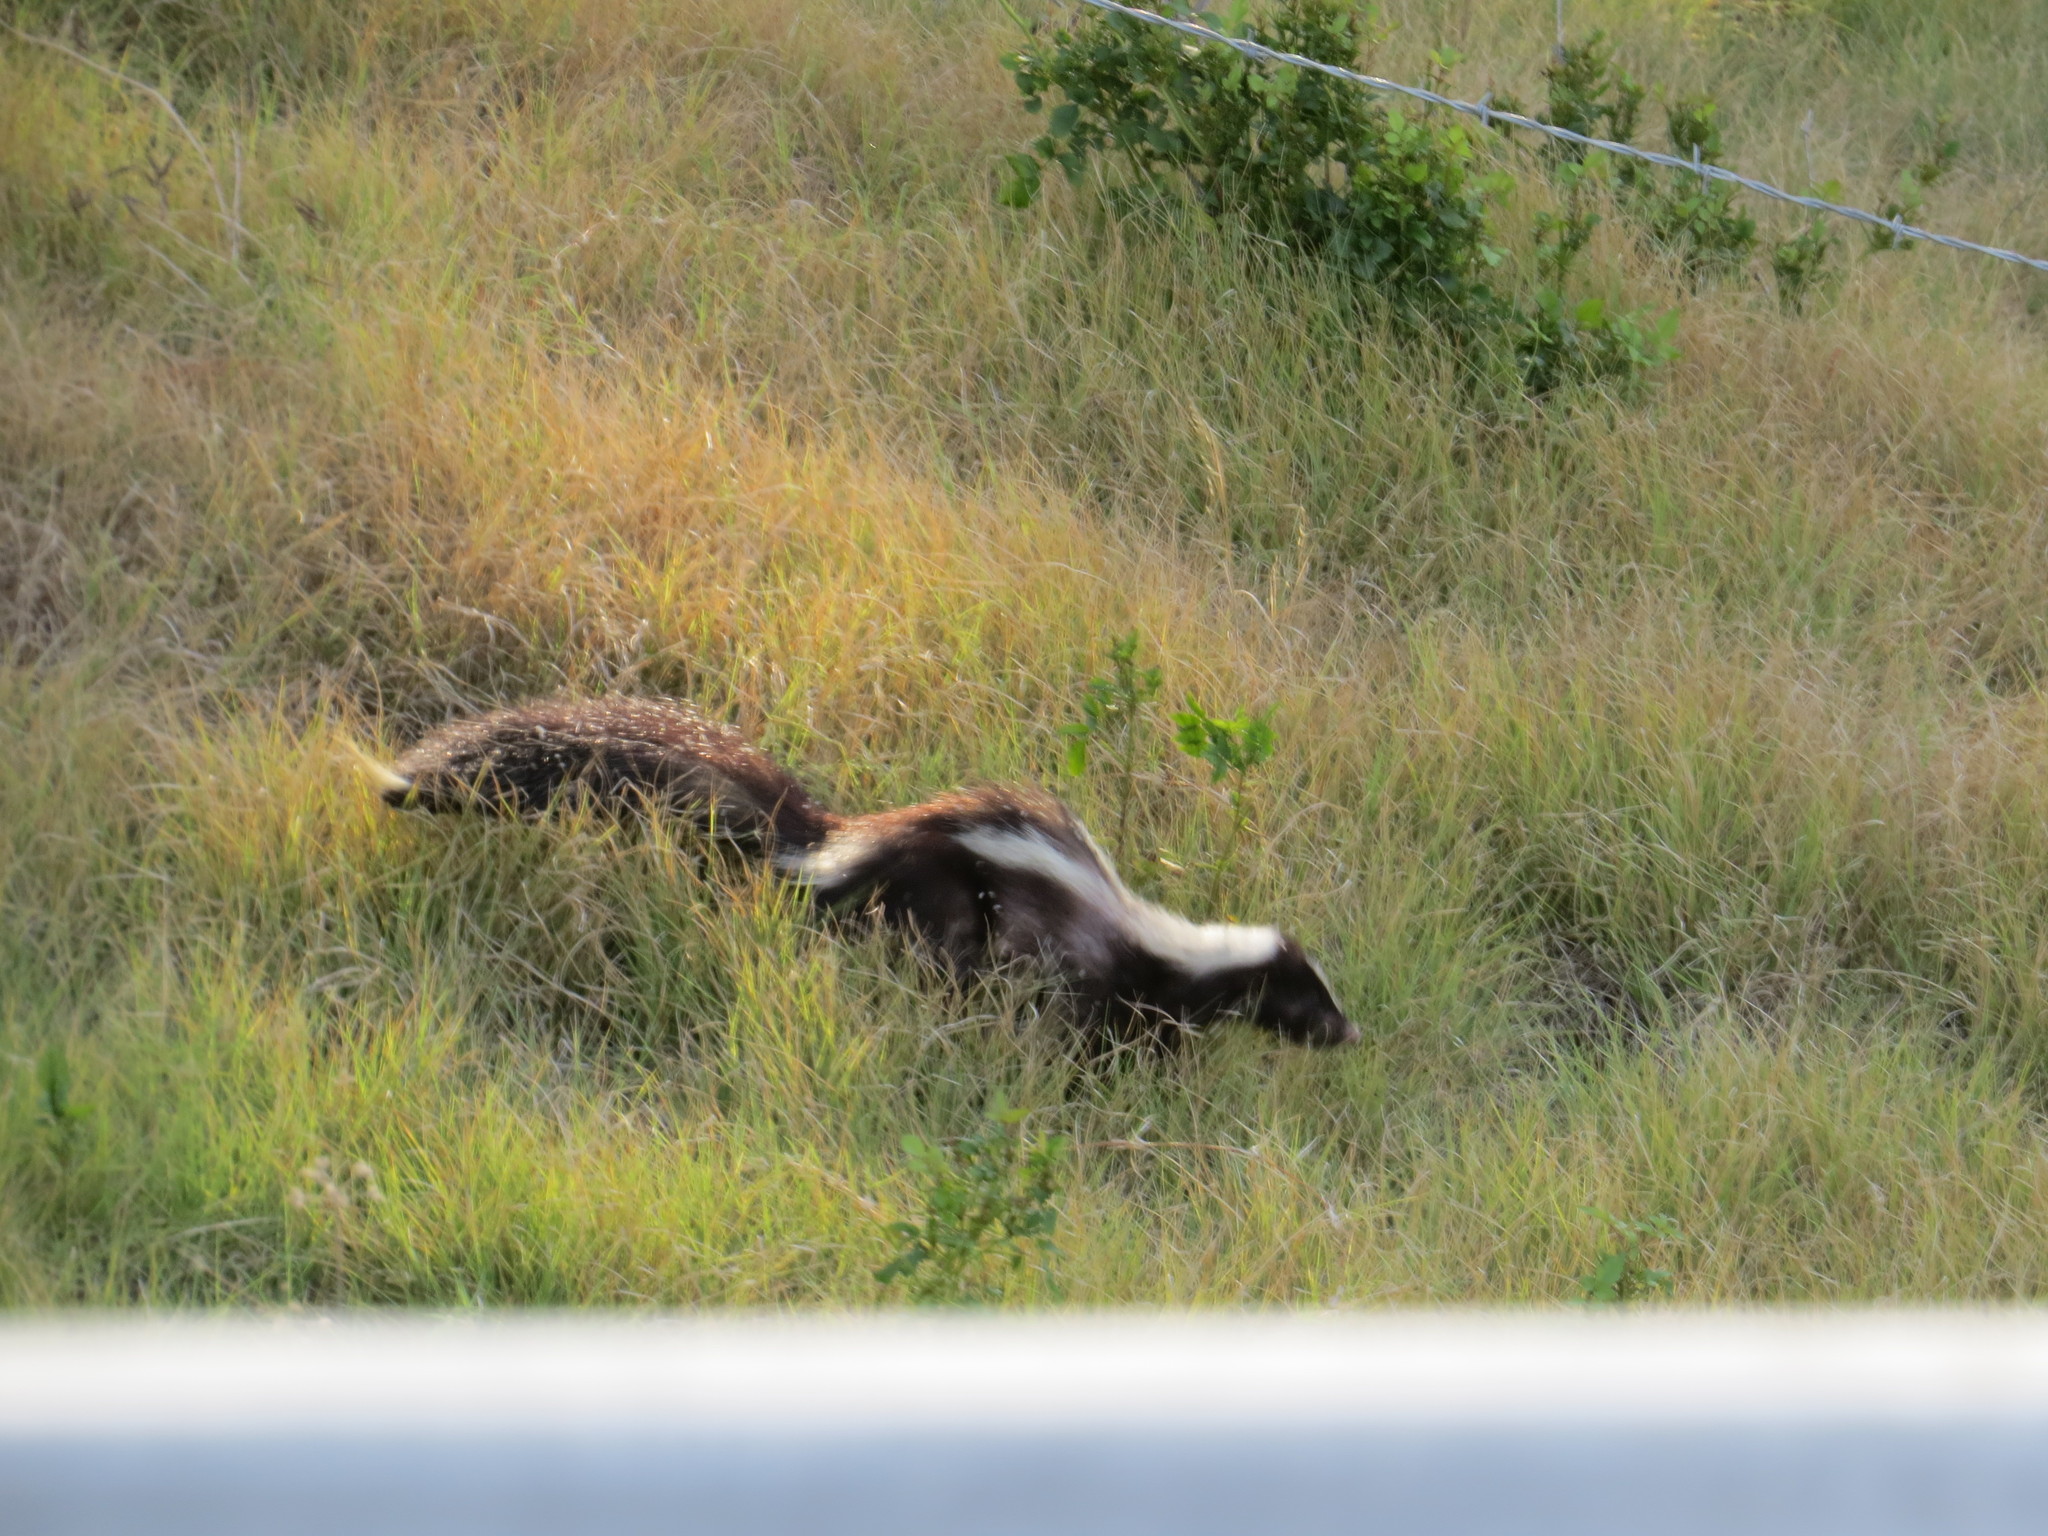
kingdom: Animalia
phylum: Chordata
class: Mammalia
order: Carnivora
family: Mephitidae
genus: Mephitis
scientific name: Mephitis mephitis
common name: Striped skunk
